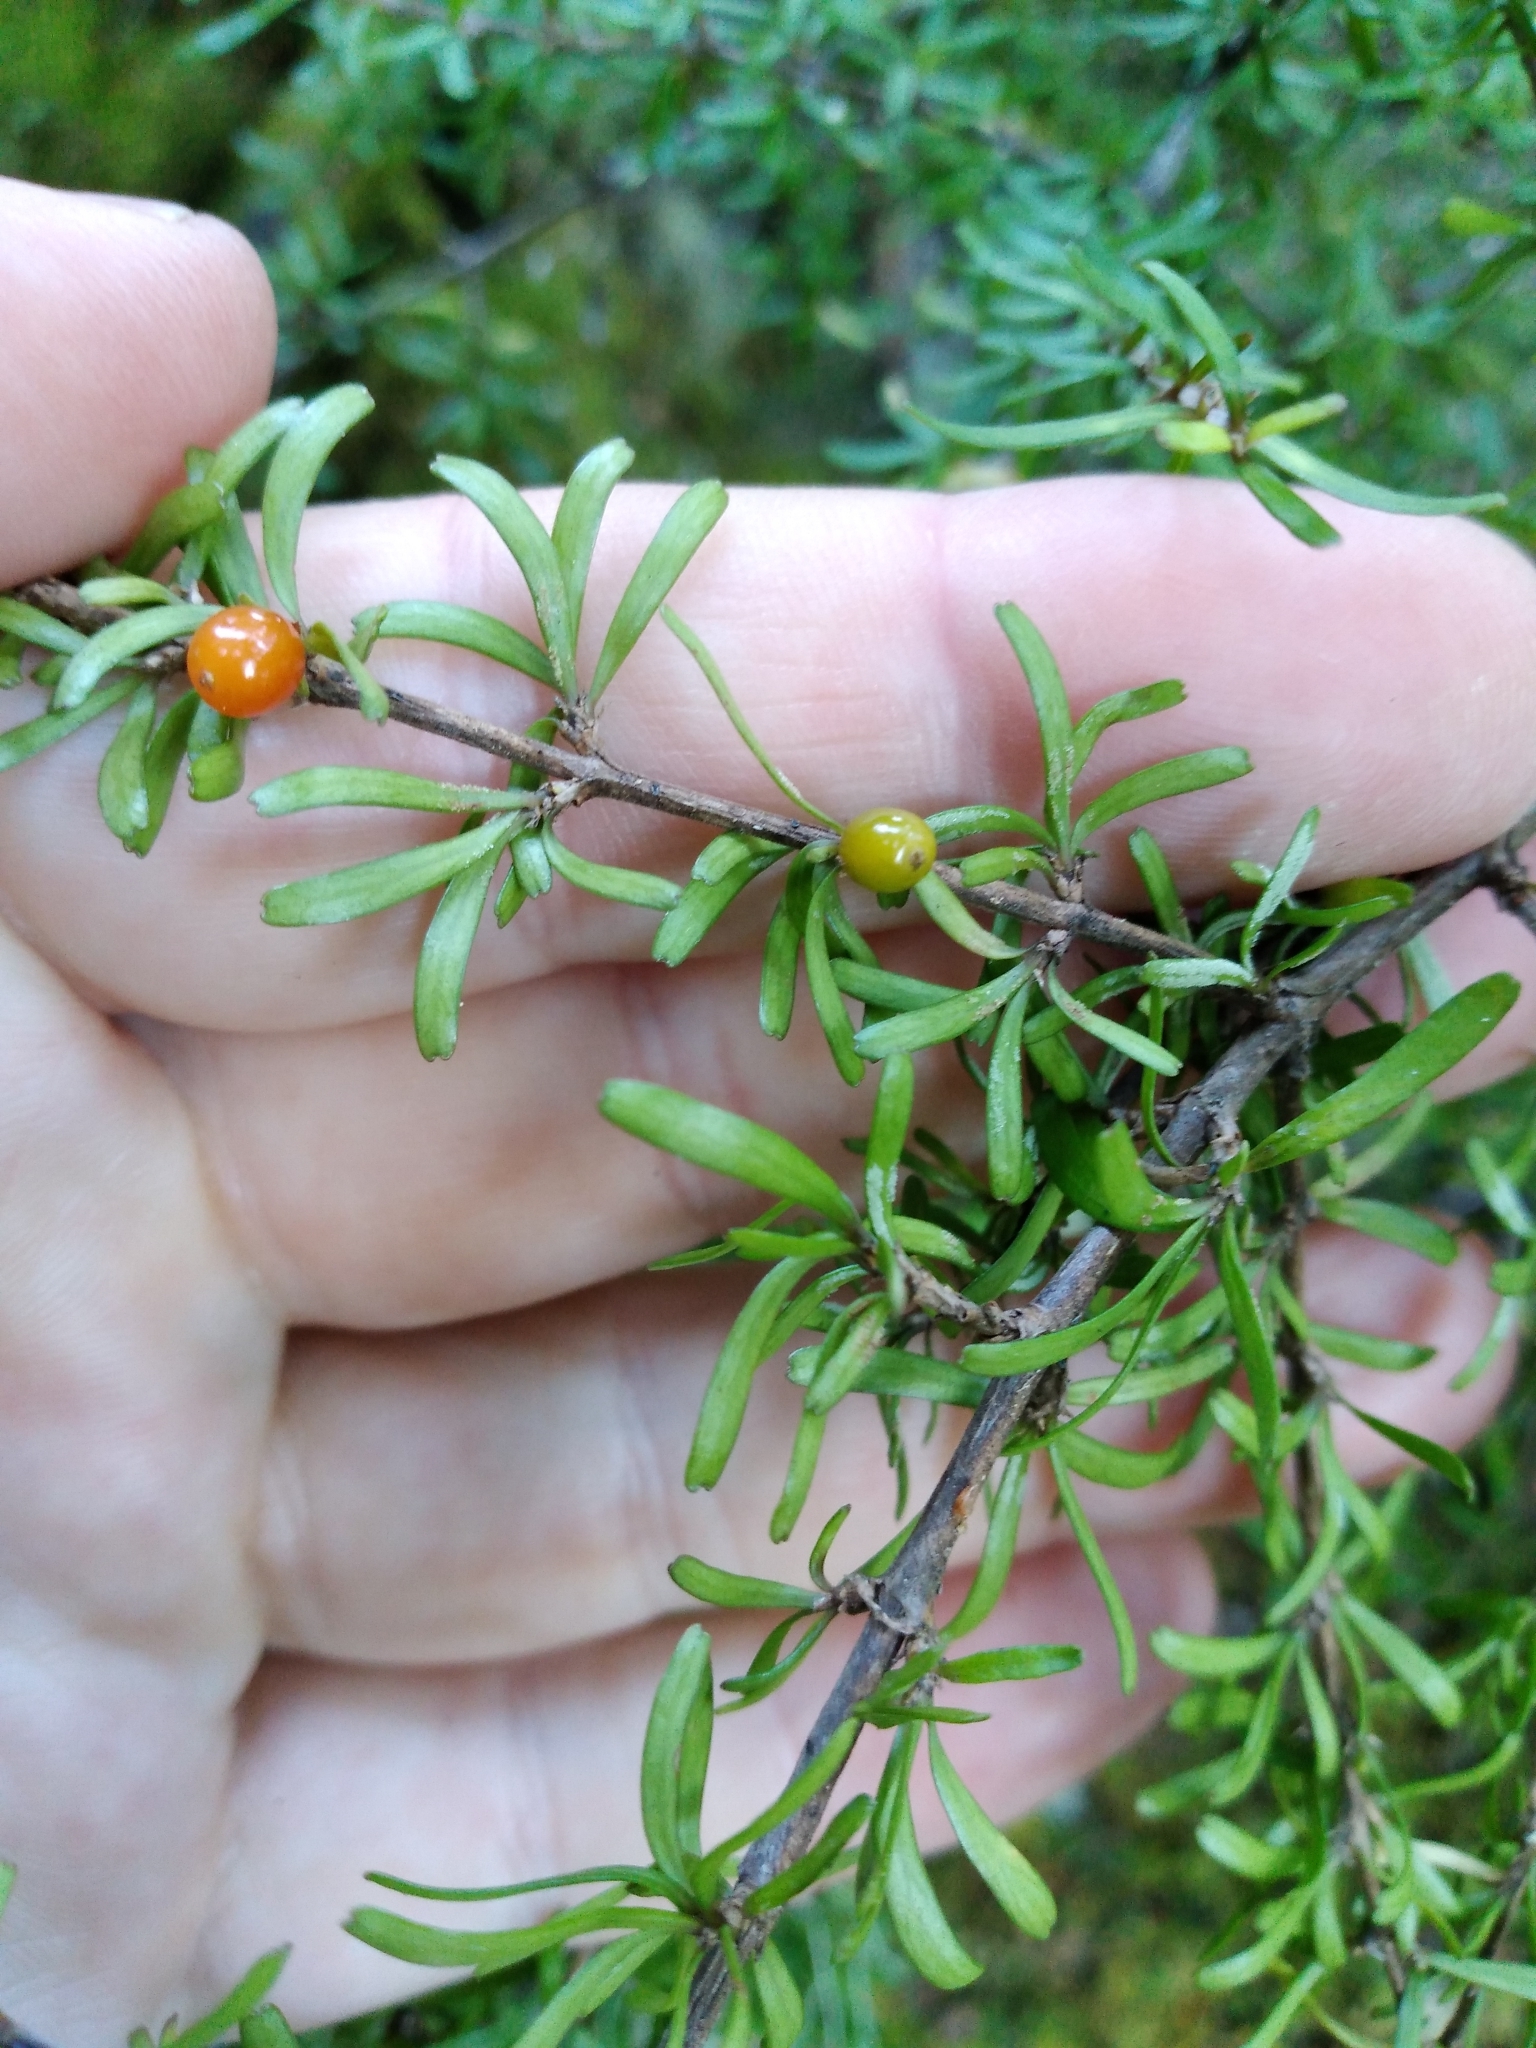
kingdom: Plantae
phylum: Tracheophyta
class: Magnoliopsida
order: Gentianales
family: Rubiaceae
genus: Coprosma
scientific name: Coprosma cuneata
